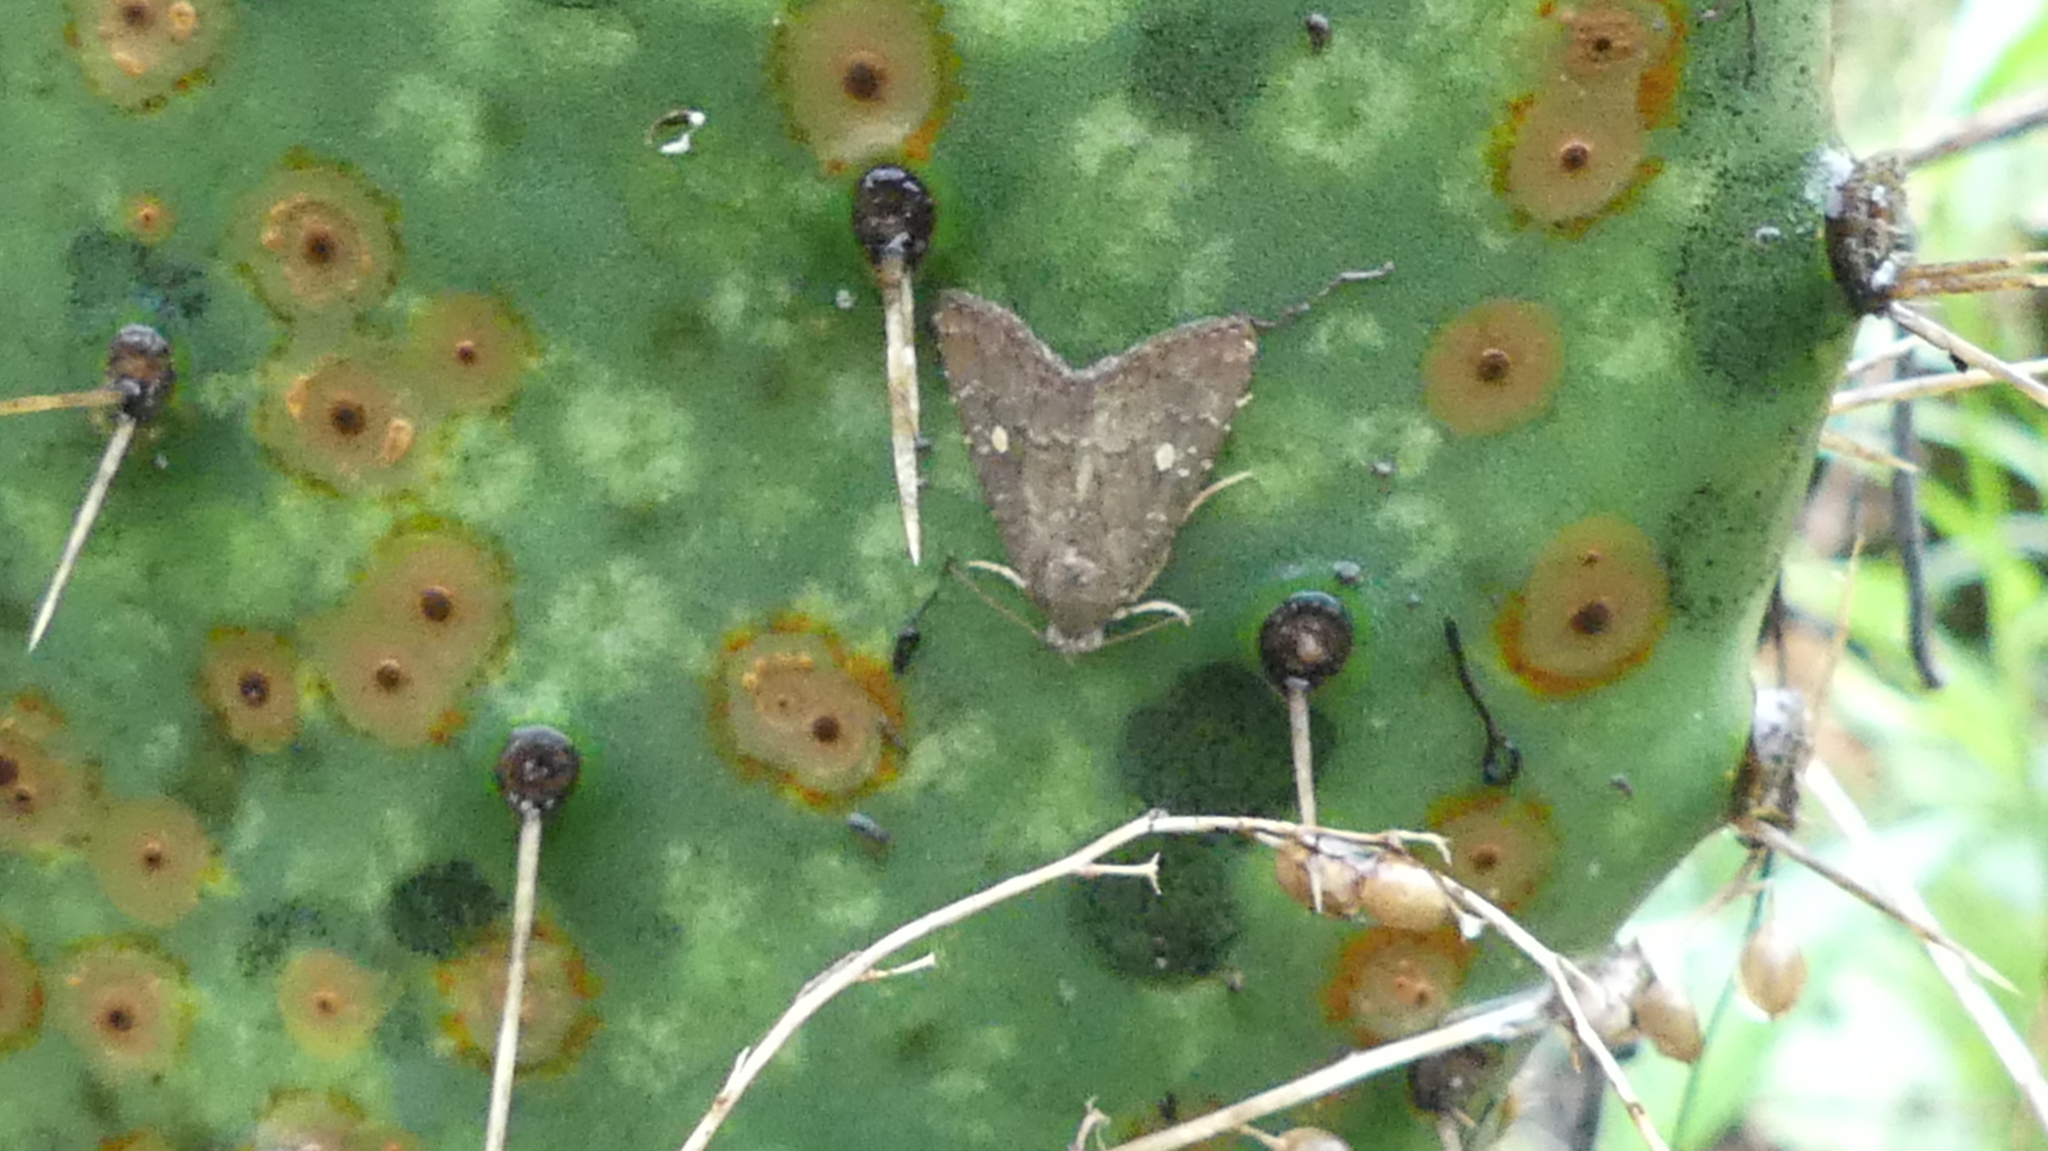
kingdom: Animalia
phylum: Arthropoda
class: Insecta
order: Lepidoptera
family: Noctuidae
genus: Amyna
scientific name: Amyna stricta
